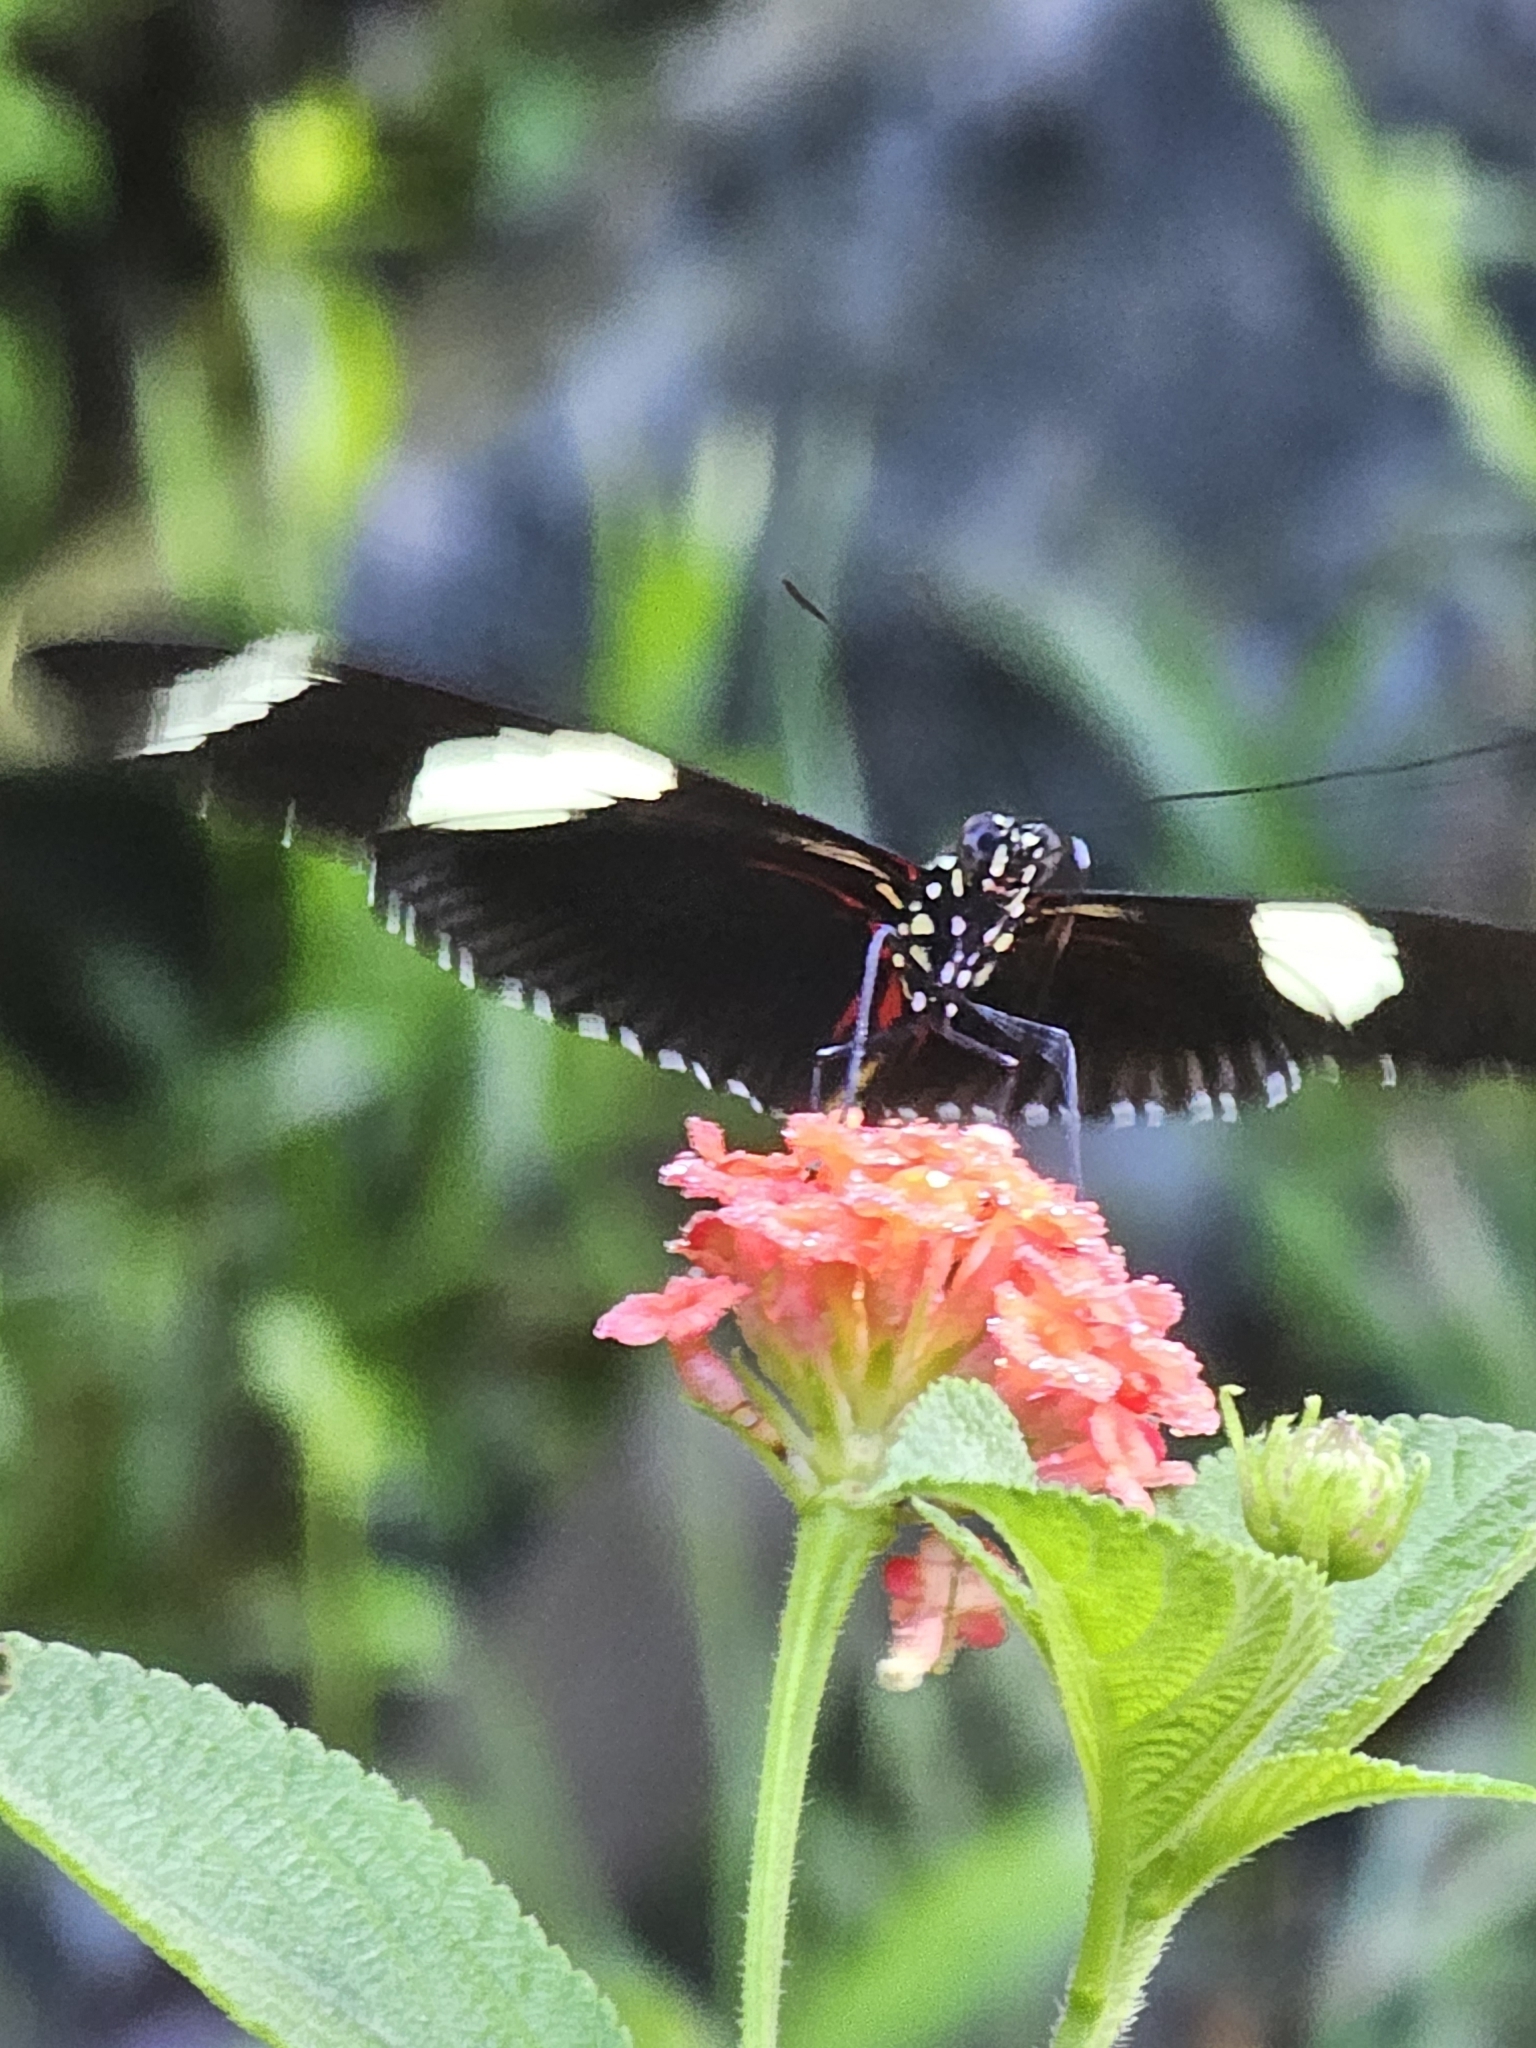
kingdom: Animalia
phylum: Arthropoda
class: Insecta
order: Lepidoptera
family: Nymphalidae
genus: Heliconius
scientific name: Heliconius sara
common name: Sara longwing
